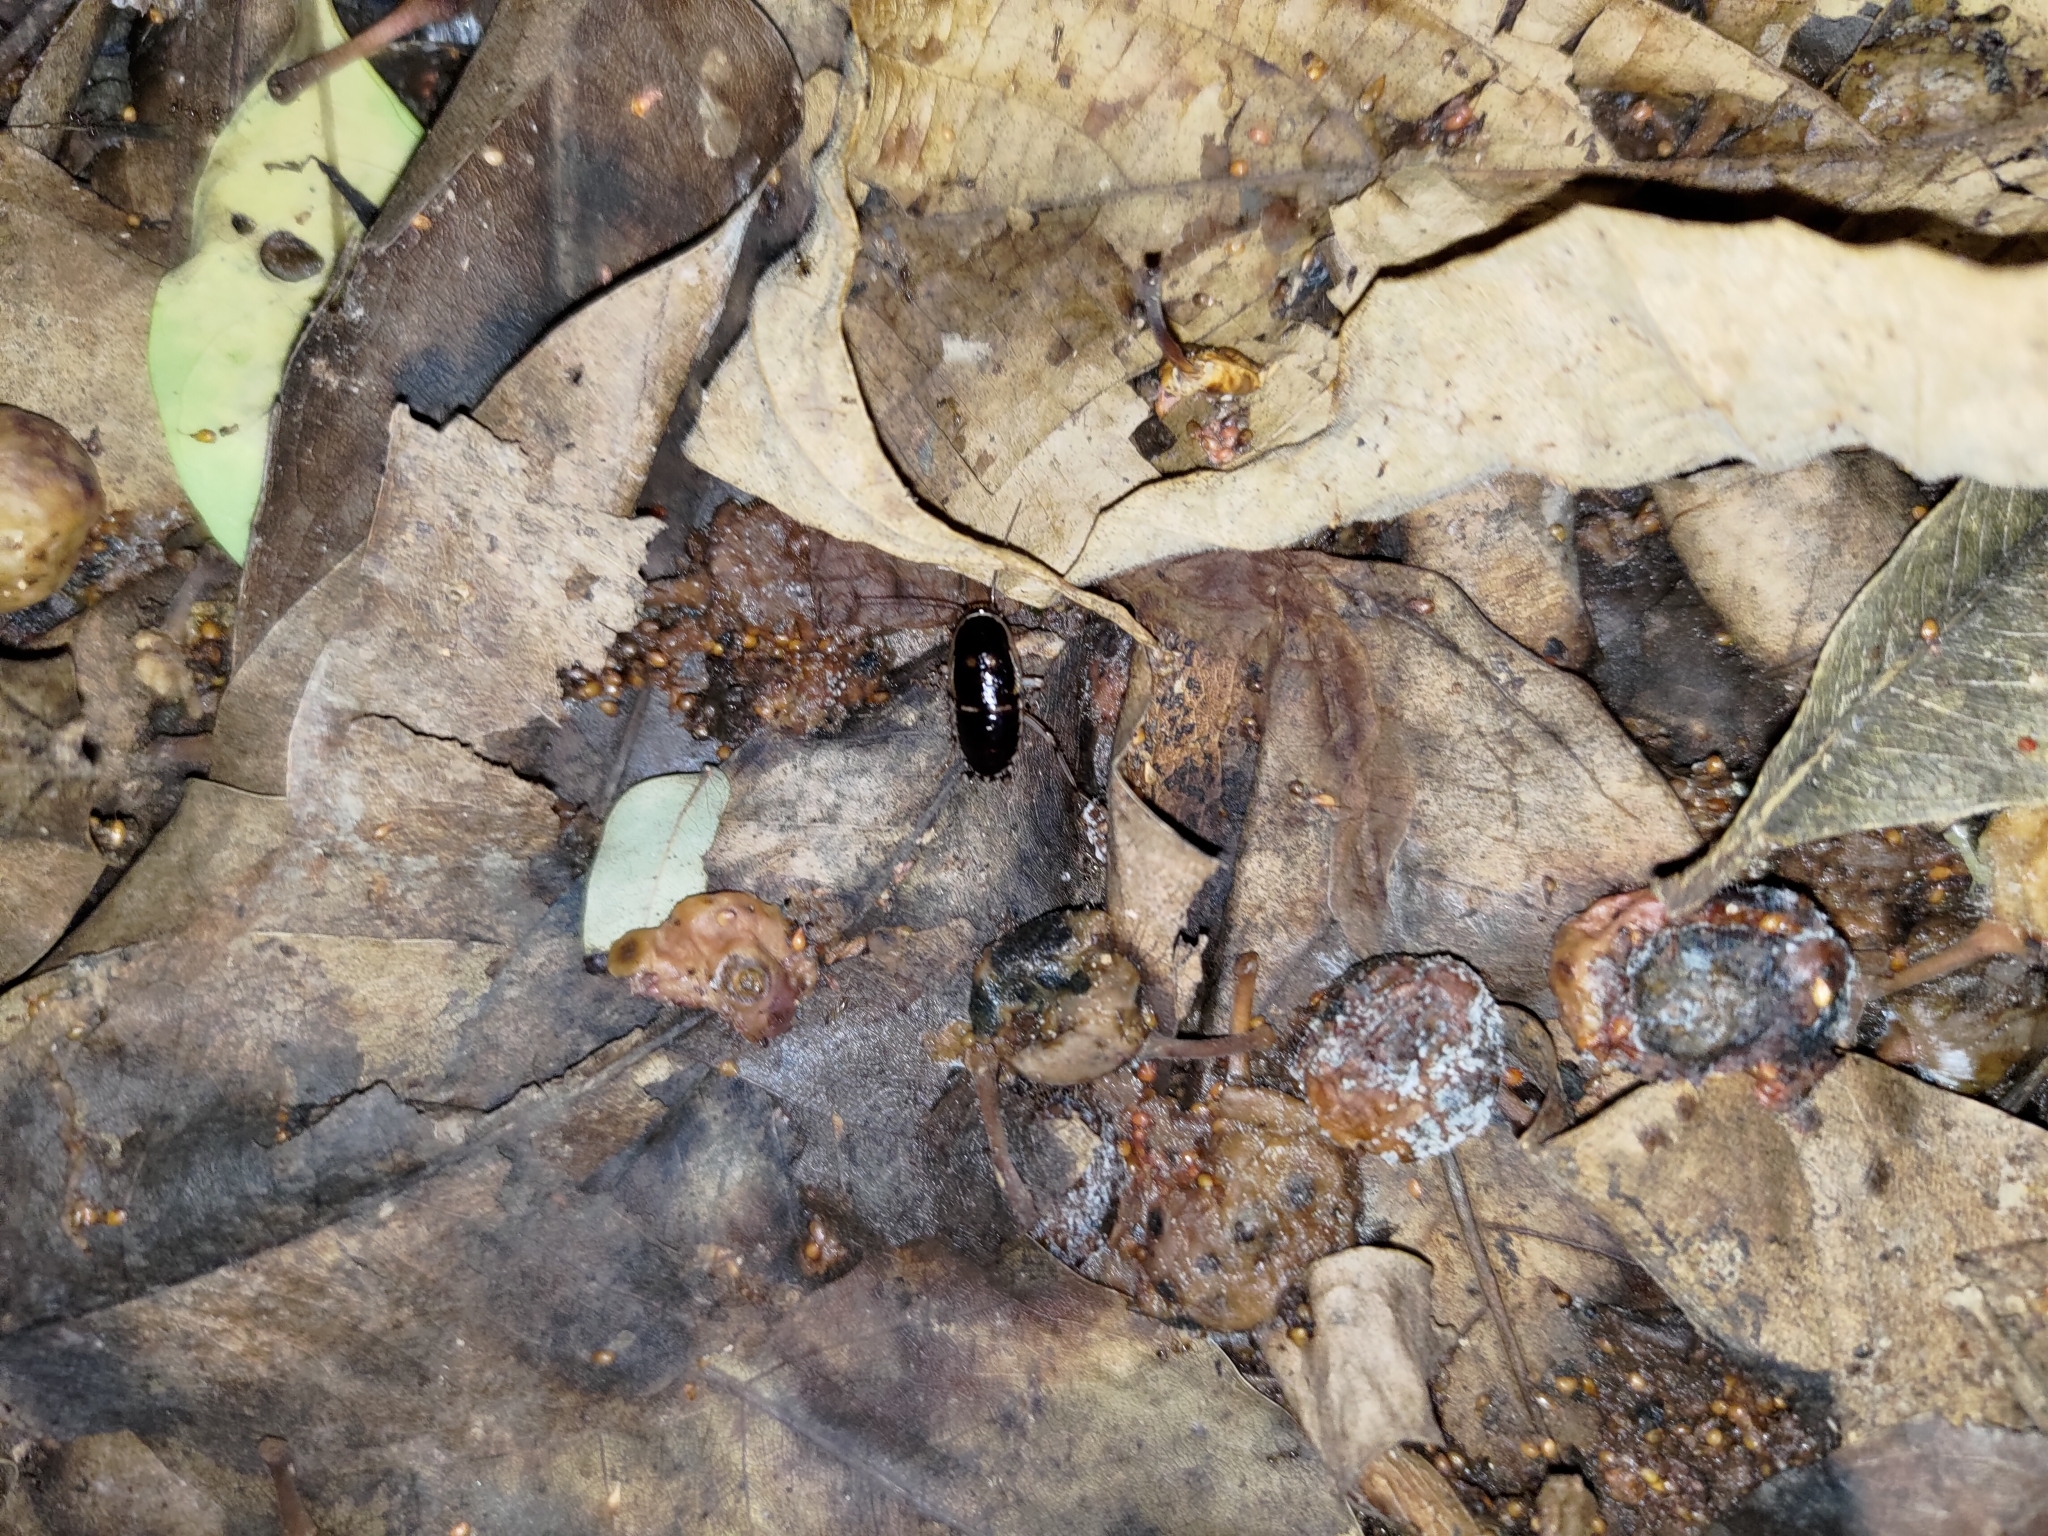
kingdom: Animalia
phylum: Arthropoda
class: Insecta
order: Blattodea
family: Ectobiidae
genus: Lobopterella
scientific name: Lobopterella dimidiatipes
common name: Cockroach
